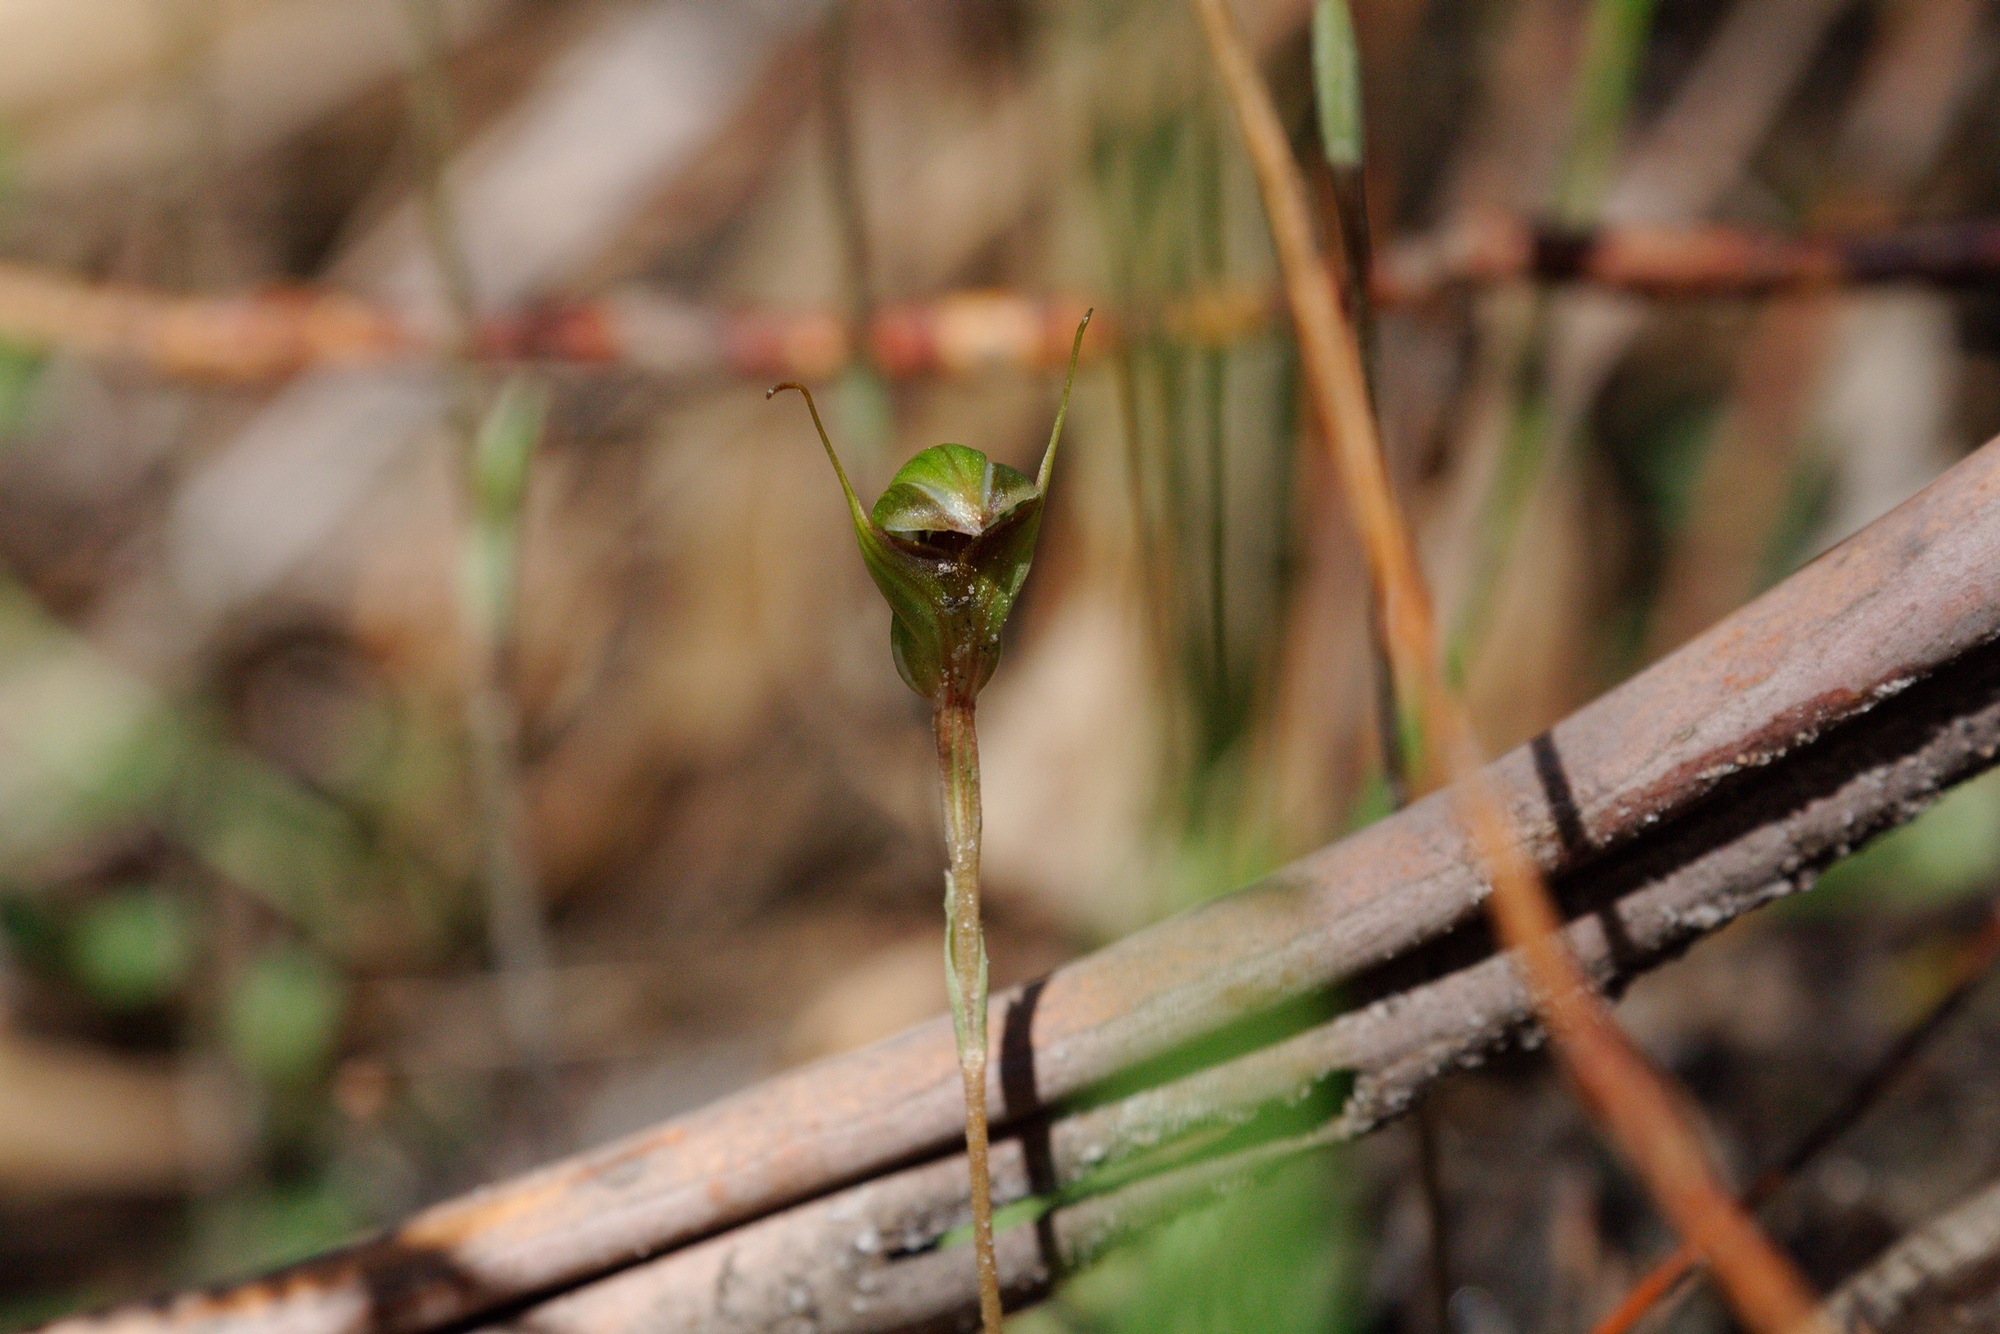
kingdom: Plantae
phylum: Tracheophyta
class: Liliopsida
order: Asparagales
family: Orchidaceae
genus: Pterostylis
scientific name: Pterostylis concinna
